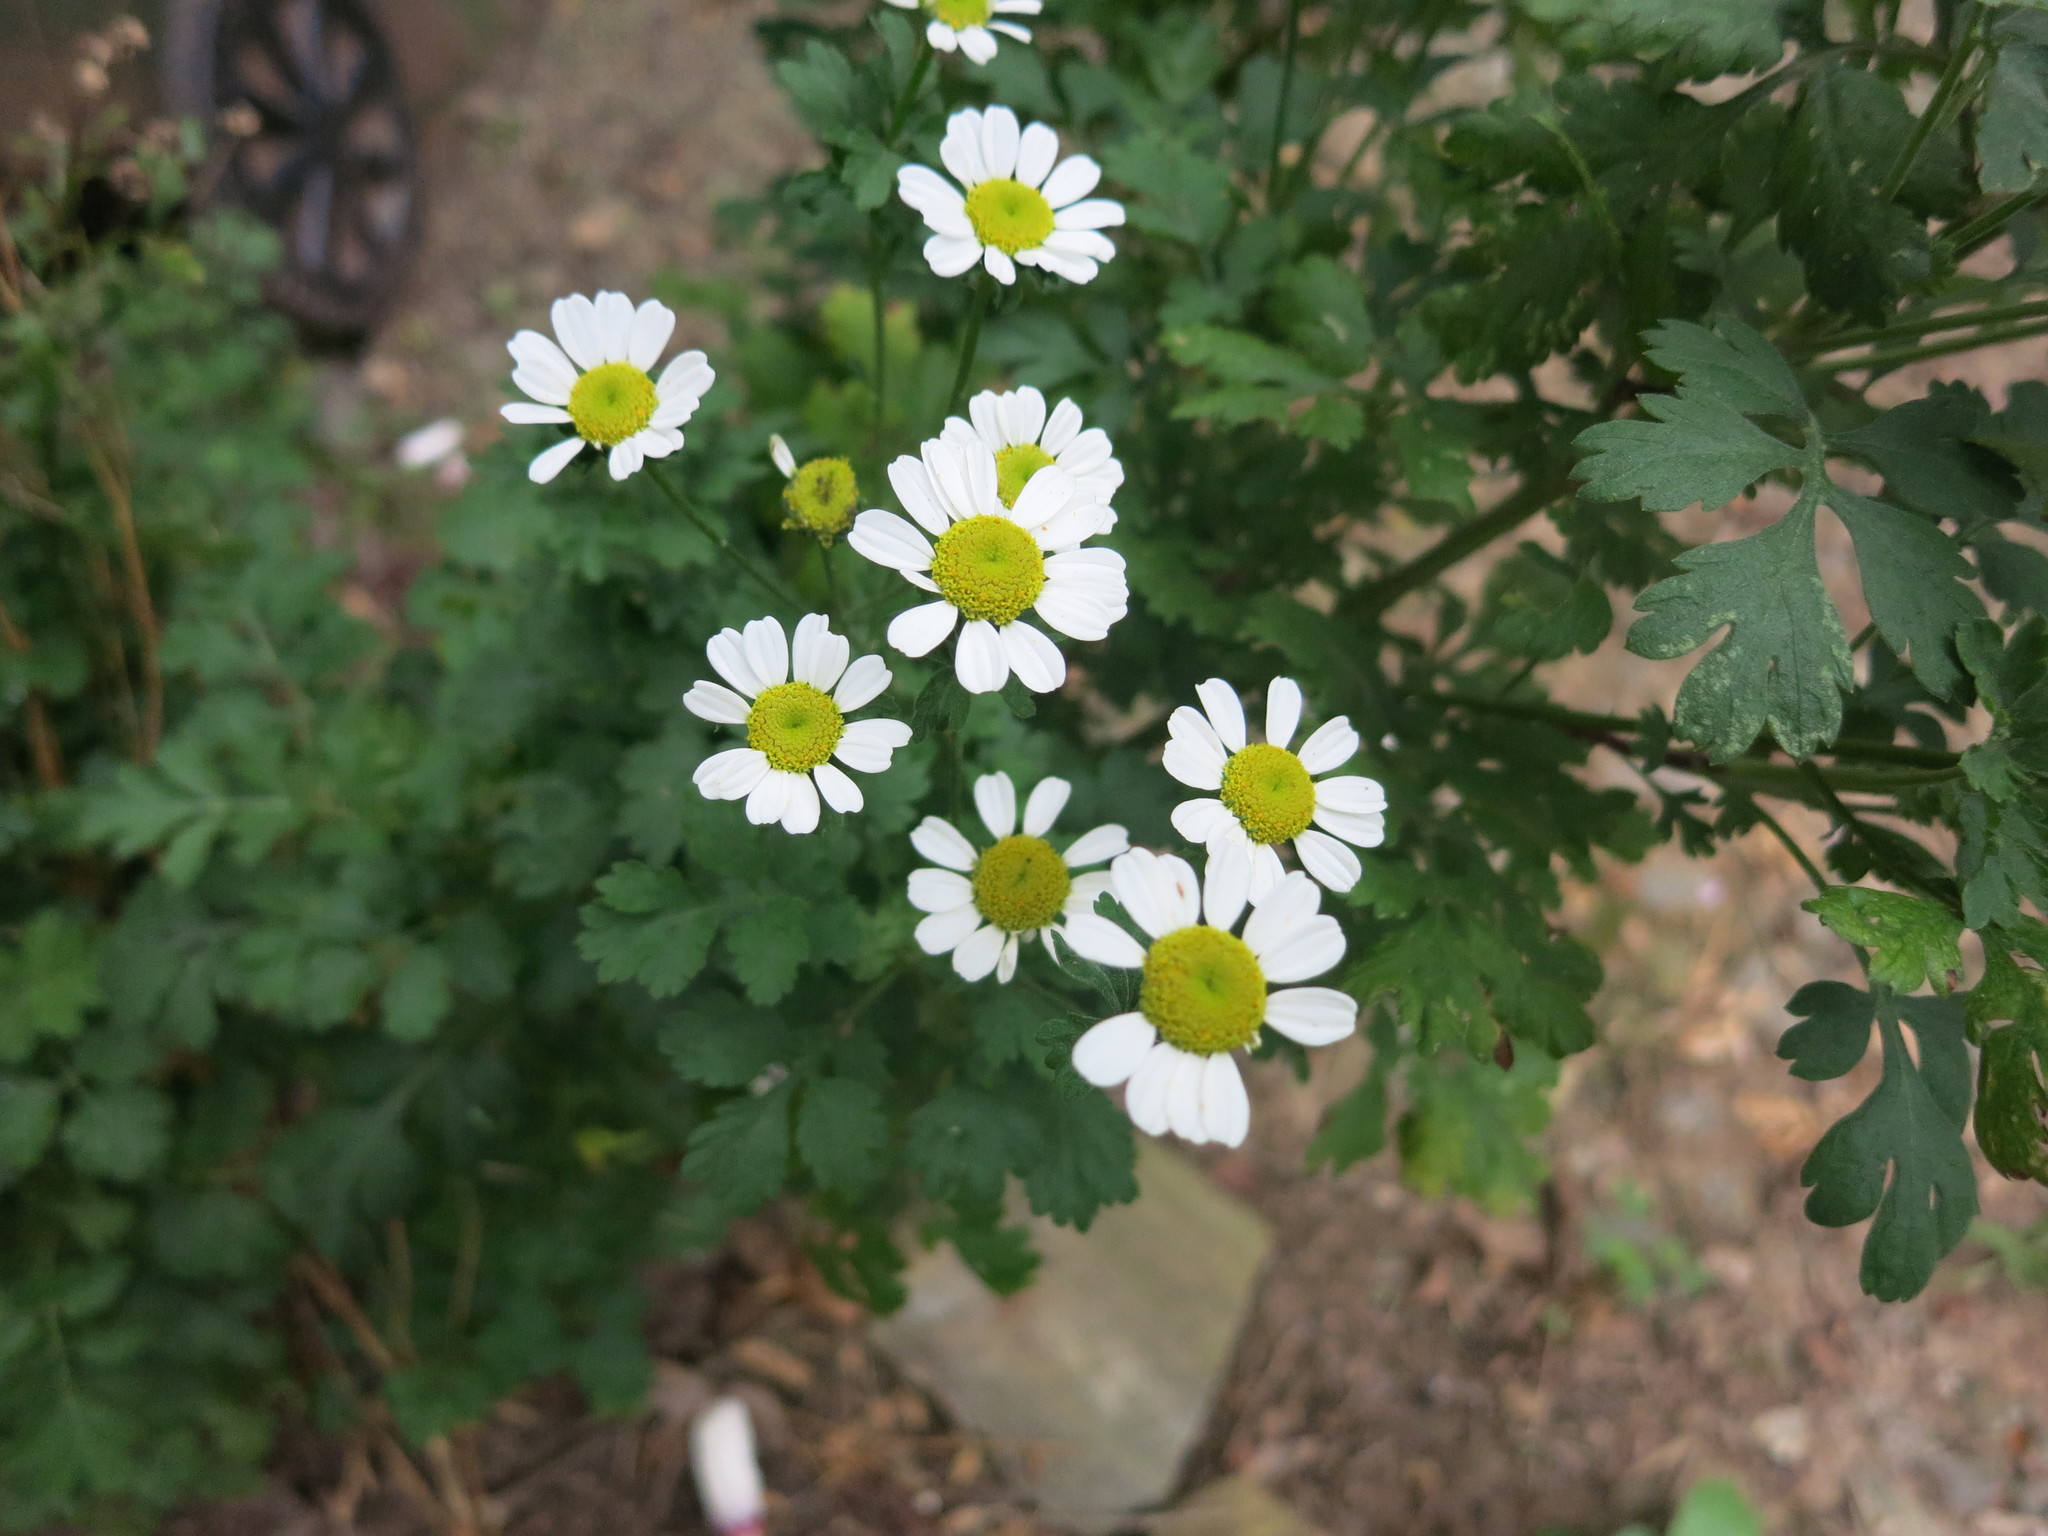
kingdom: Plantae
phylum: Tracheophyta
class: Magnoliopsida
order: Asterales
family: Asteraceae
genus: Tanacetum
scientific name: Tanacetum parthenium
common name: Feverfew
